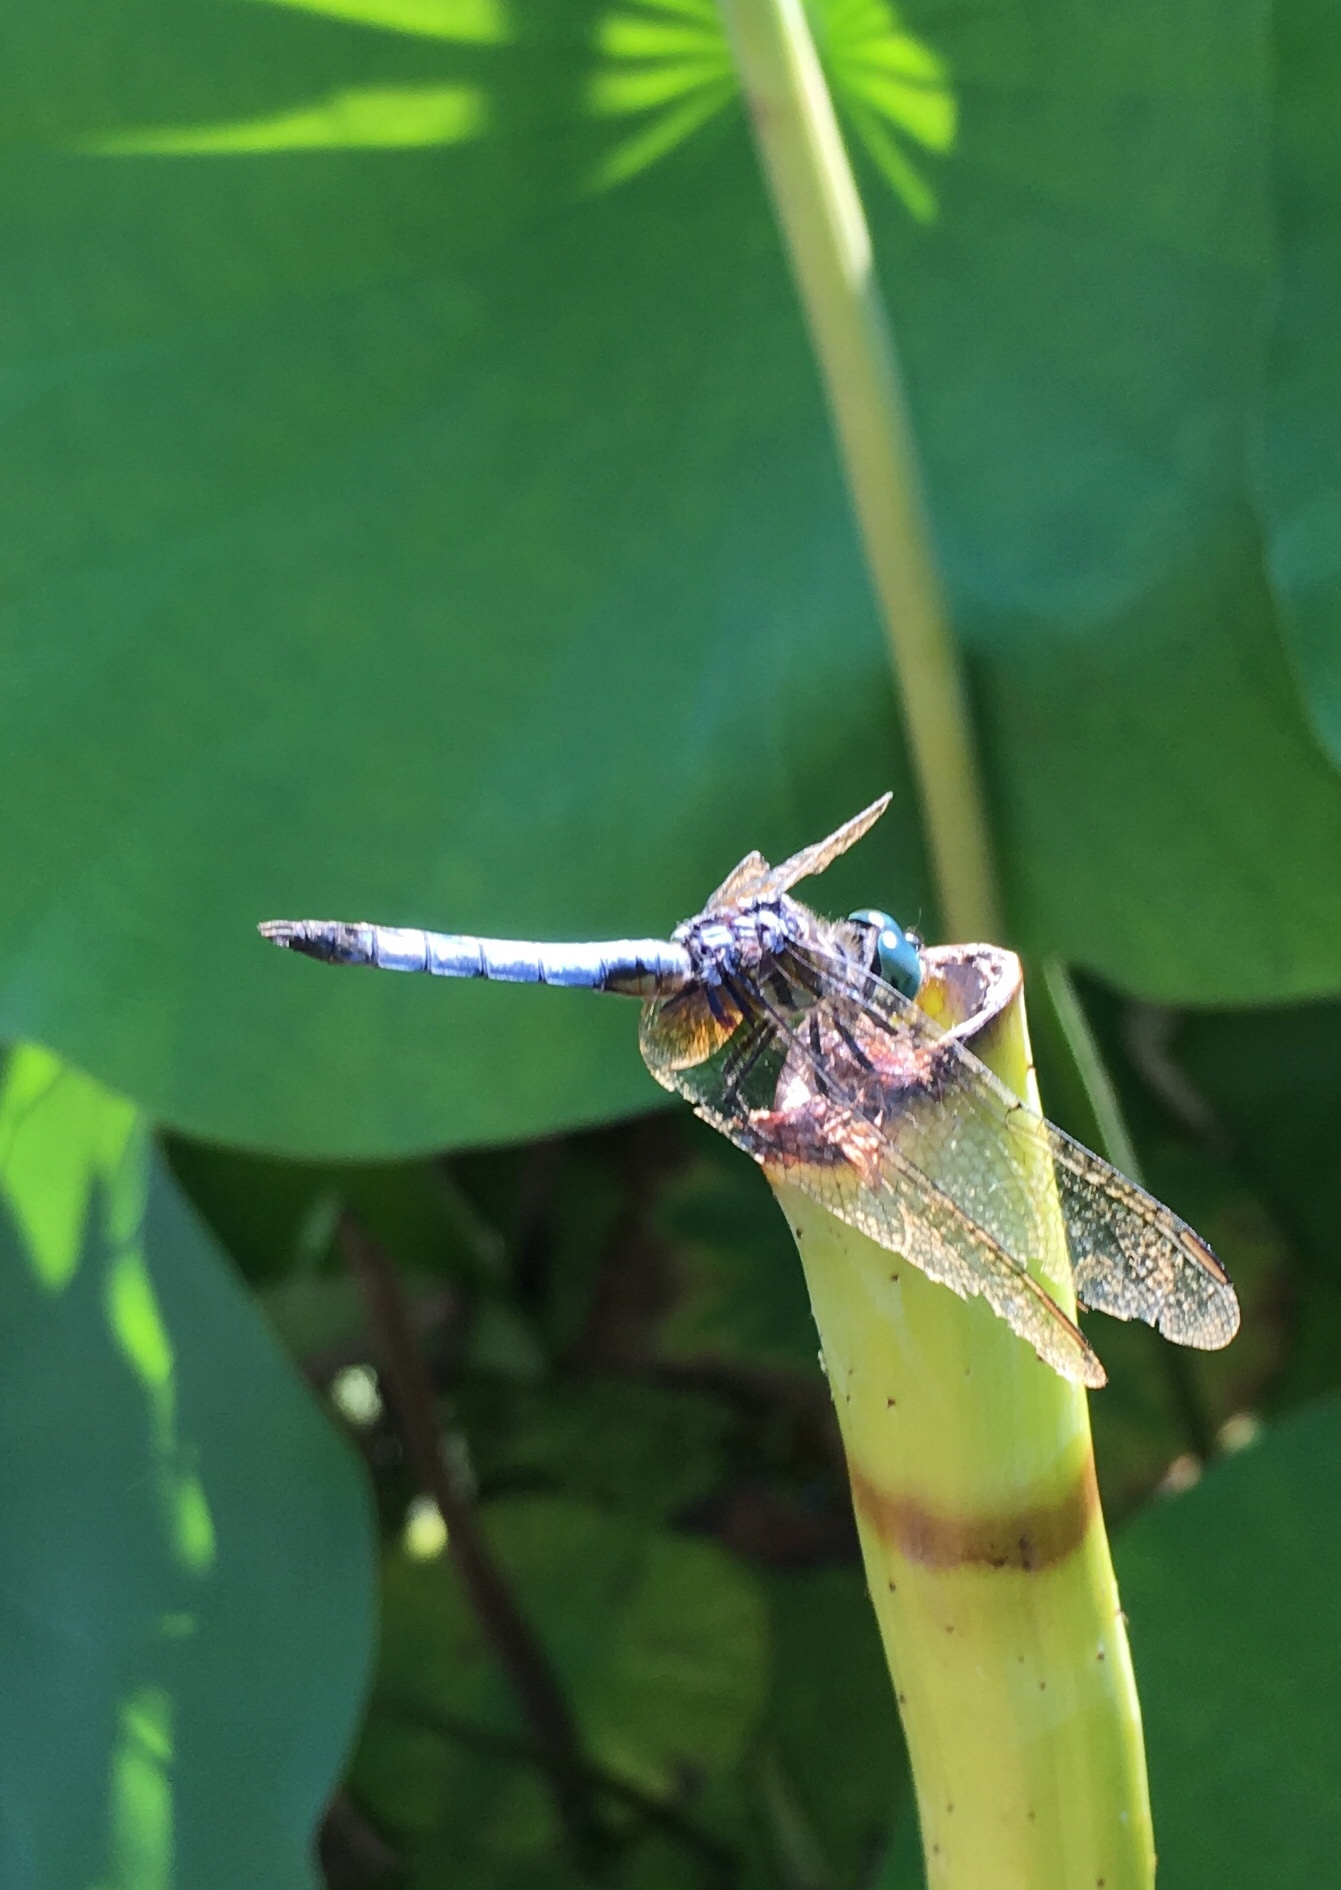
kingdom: Animalia
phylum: Arthropoda
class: Insecta
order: Odonata
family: Libellulidae
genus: Pachydiplax
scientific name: Pachydiplax longipennis
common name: Blue dasher
